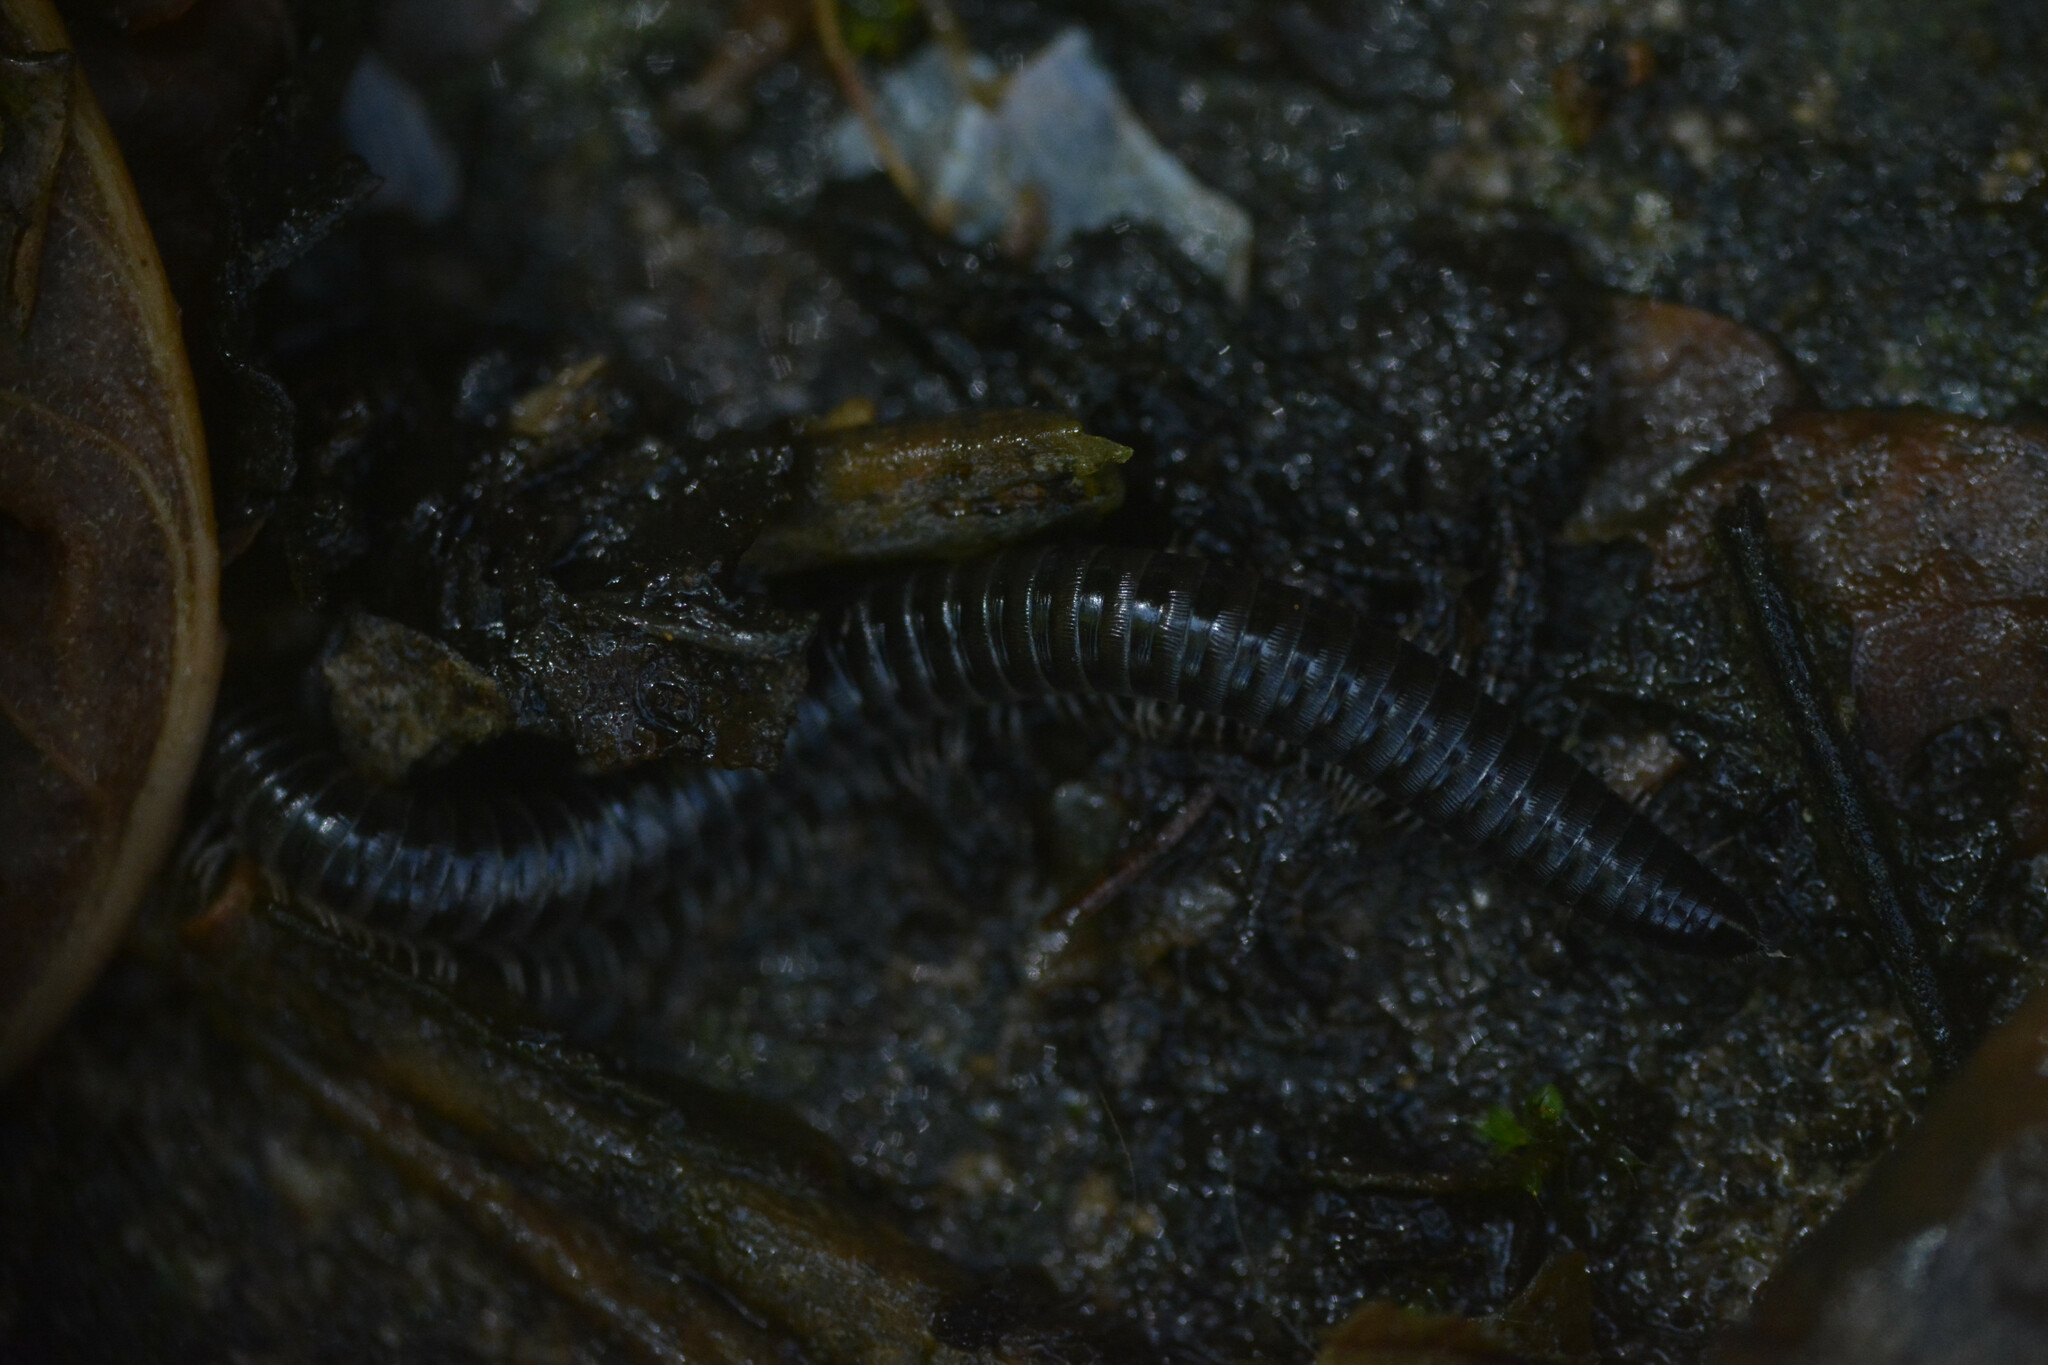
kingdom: Animalia
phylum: Arthropoda
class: Diplopoda
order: Julida
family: Julidae
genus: Tachypodoiulus
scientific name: Tachypodoiulus niger
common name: White-legged snake millipede
